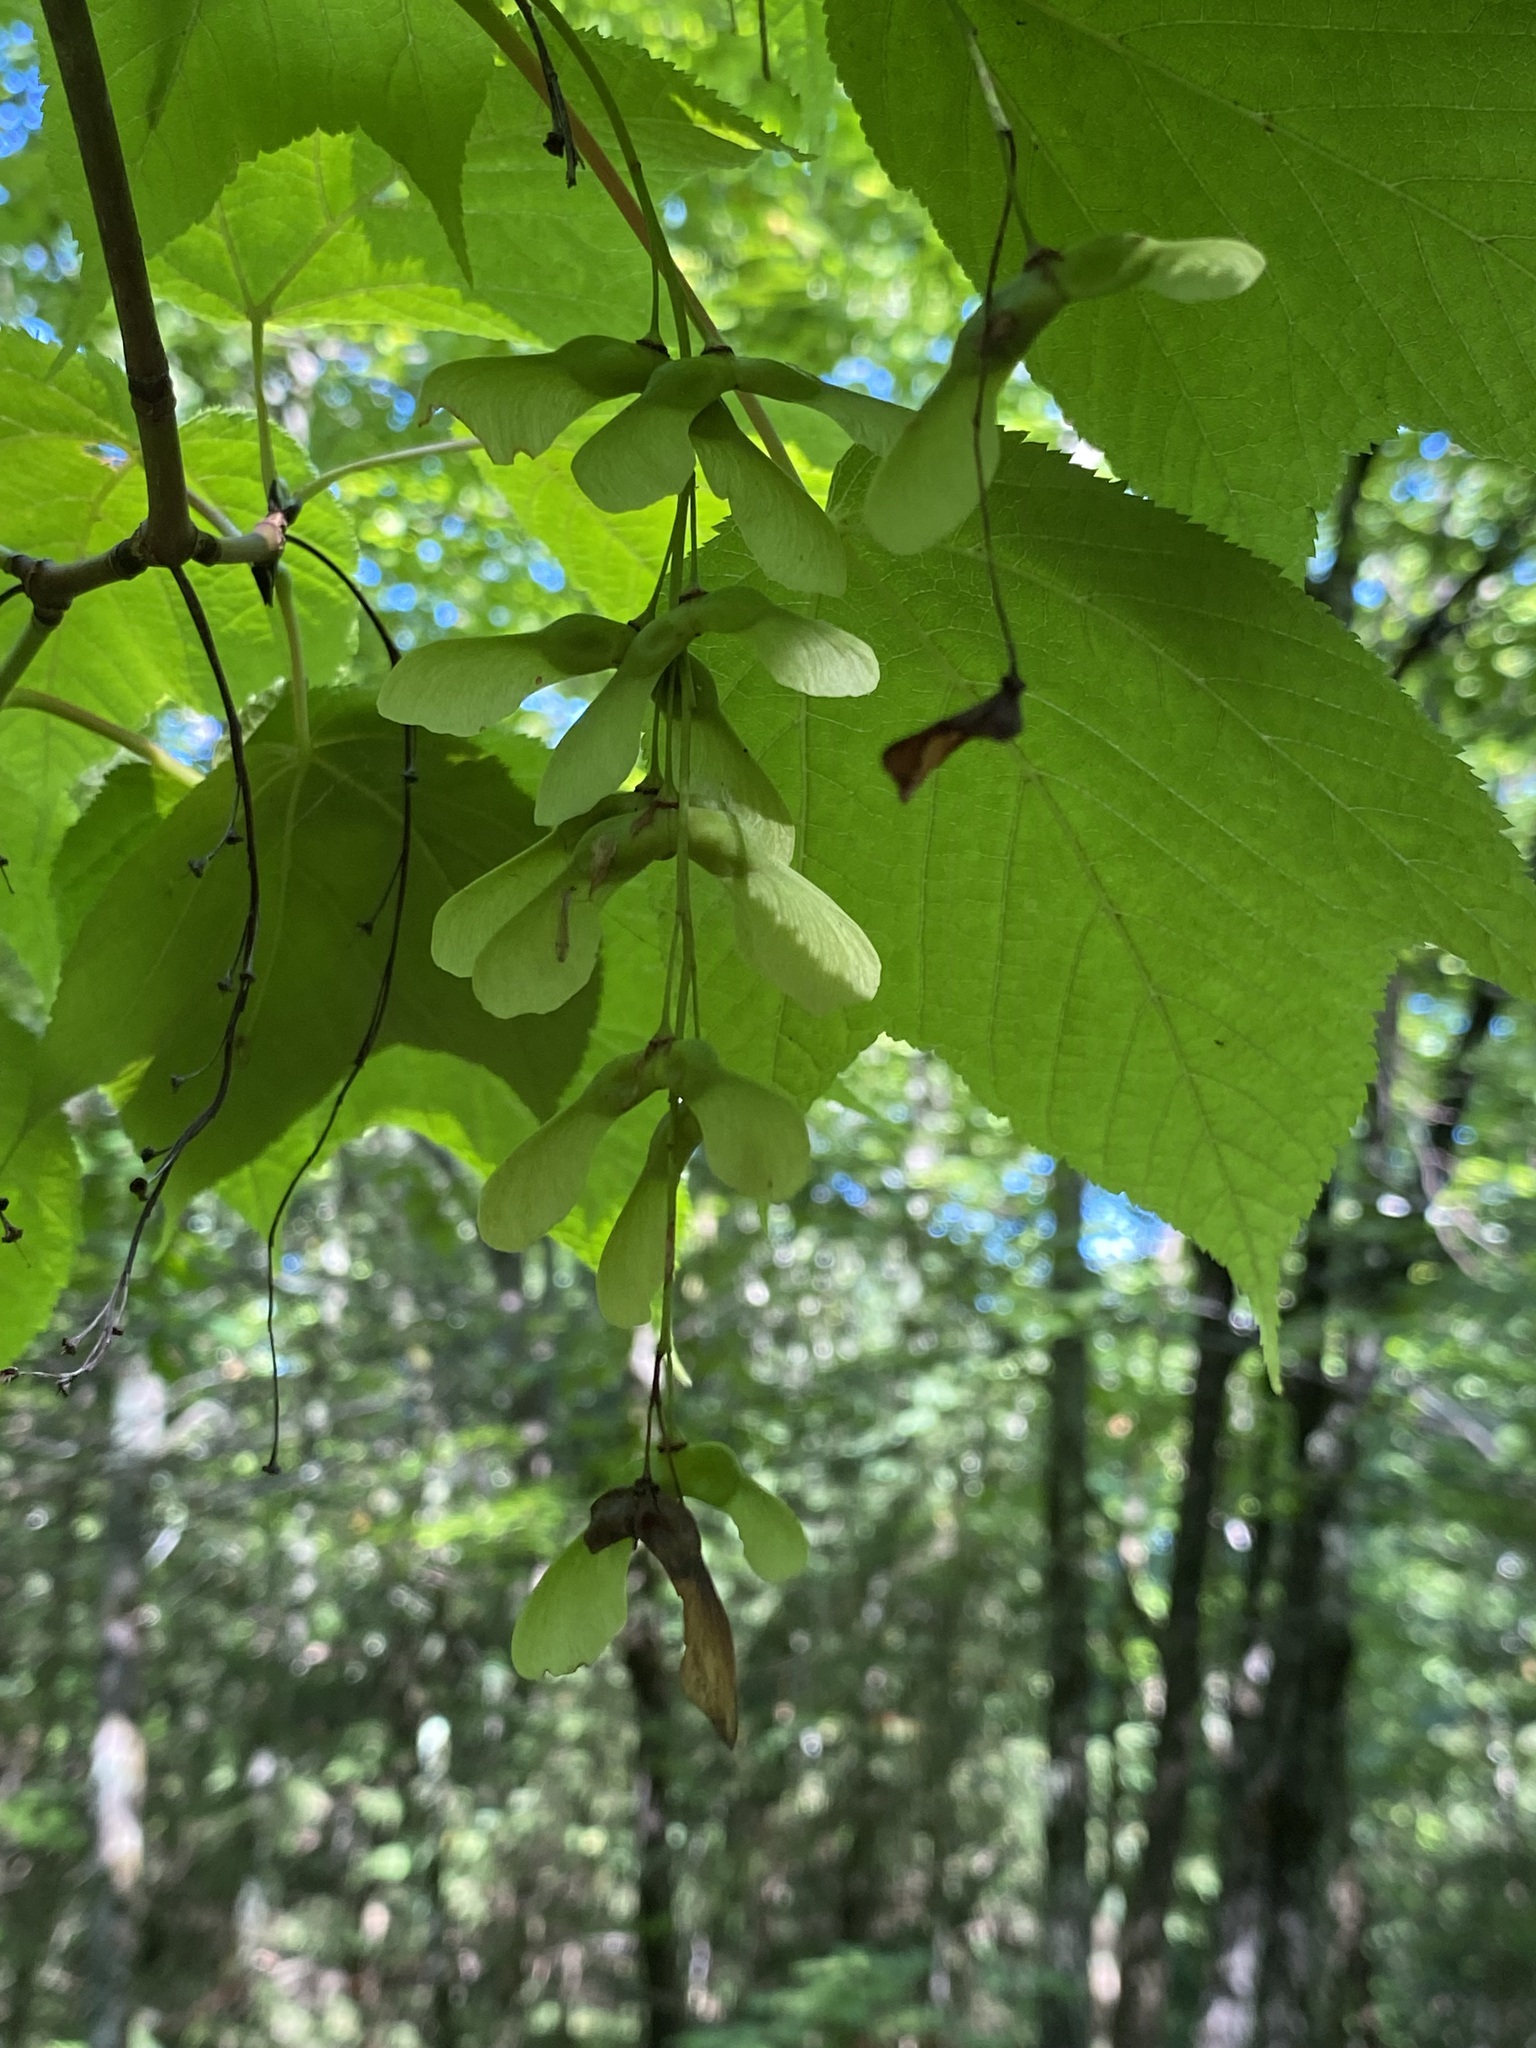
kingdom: Plantae
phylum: Tracheophyta
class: Magnoliopsida
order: Sapindales
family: Sapindaceae
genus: Acer
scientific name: Acer pensylvanicum
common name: Moosewood
